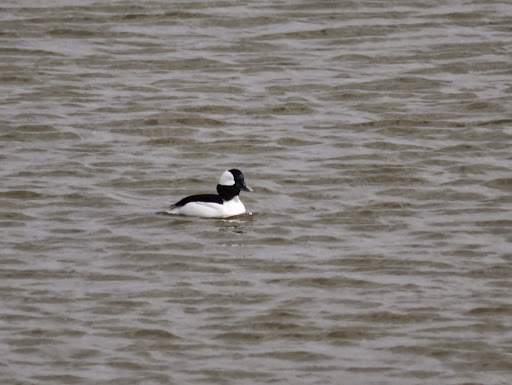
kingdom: Animalia
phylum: Chordata
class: Aves
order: Anseriformes
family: Anatidae
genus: Bucephala
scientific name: Bucephala albeola
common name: Bufflehead
